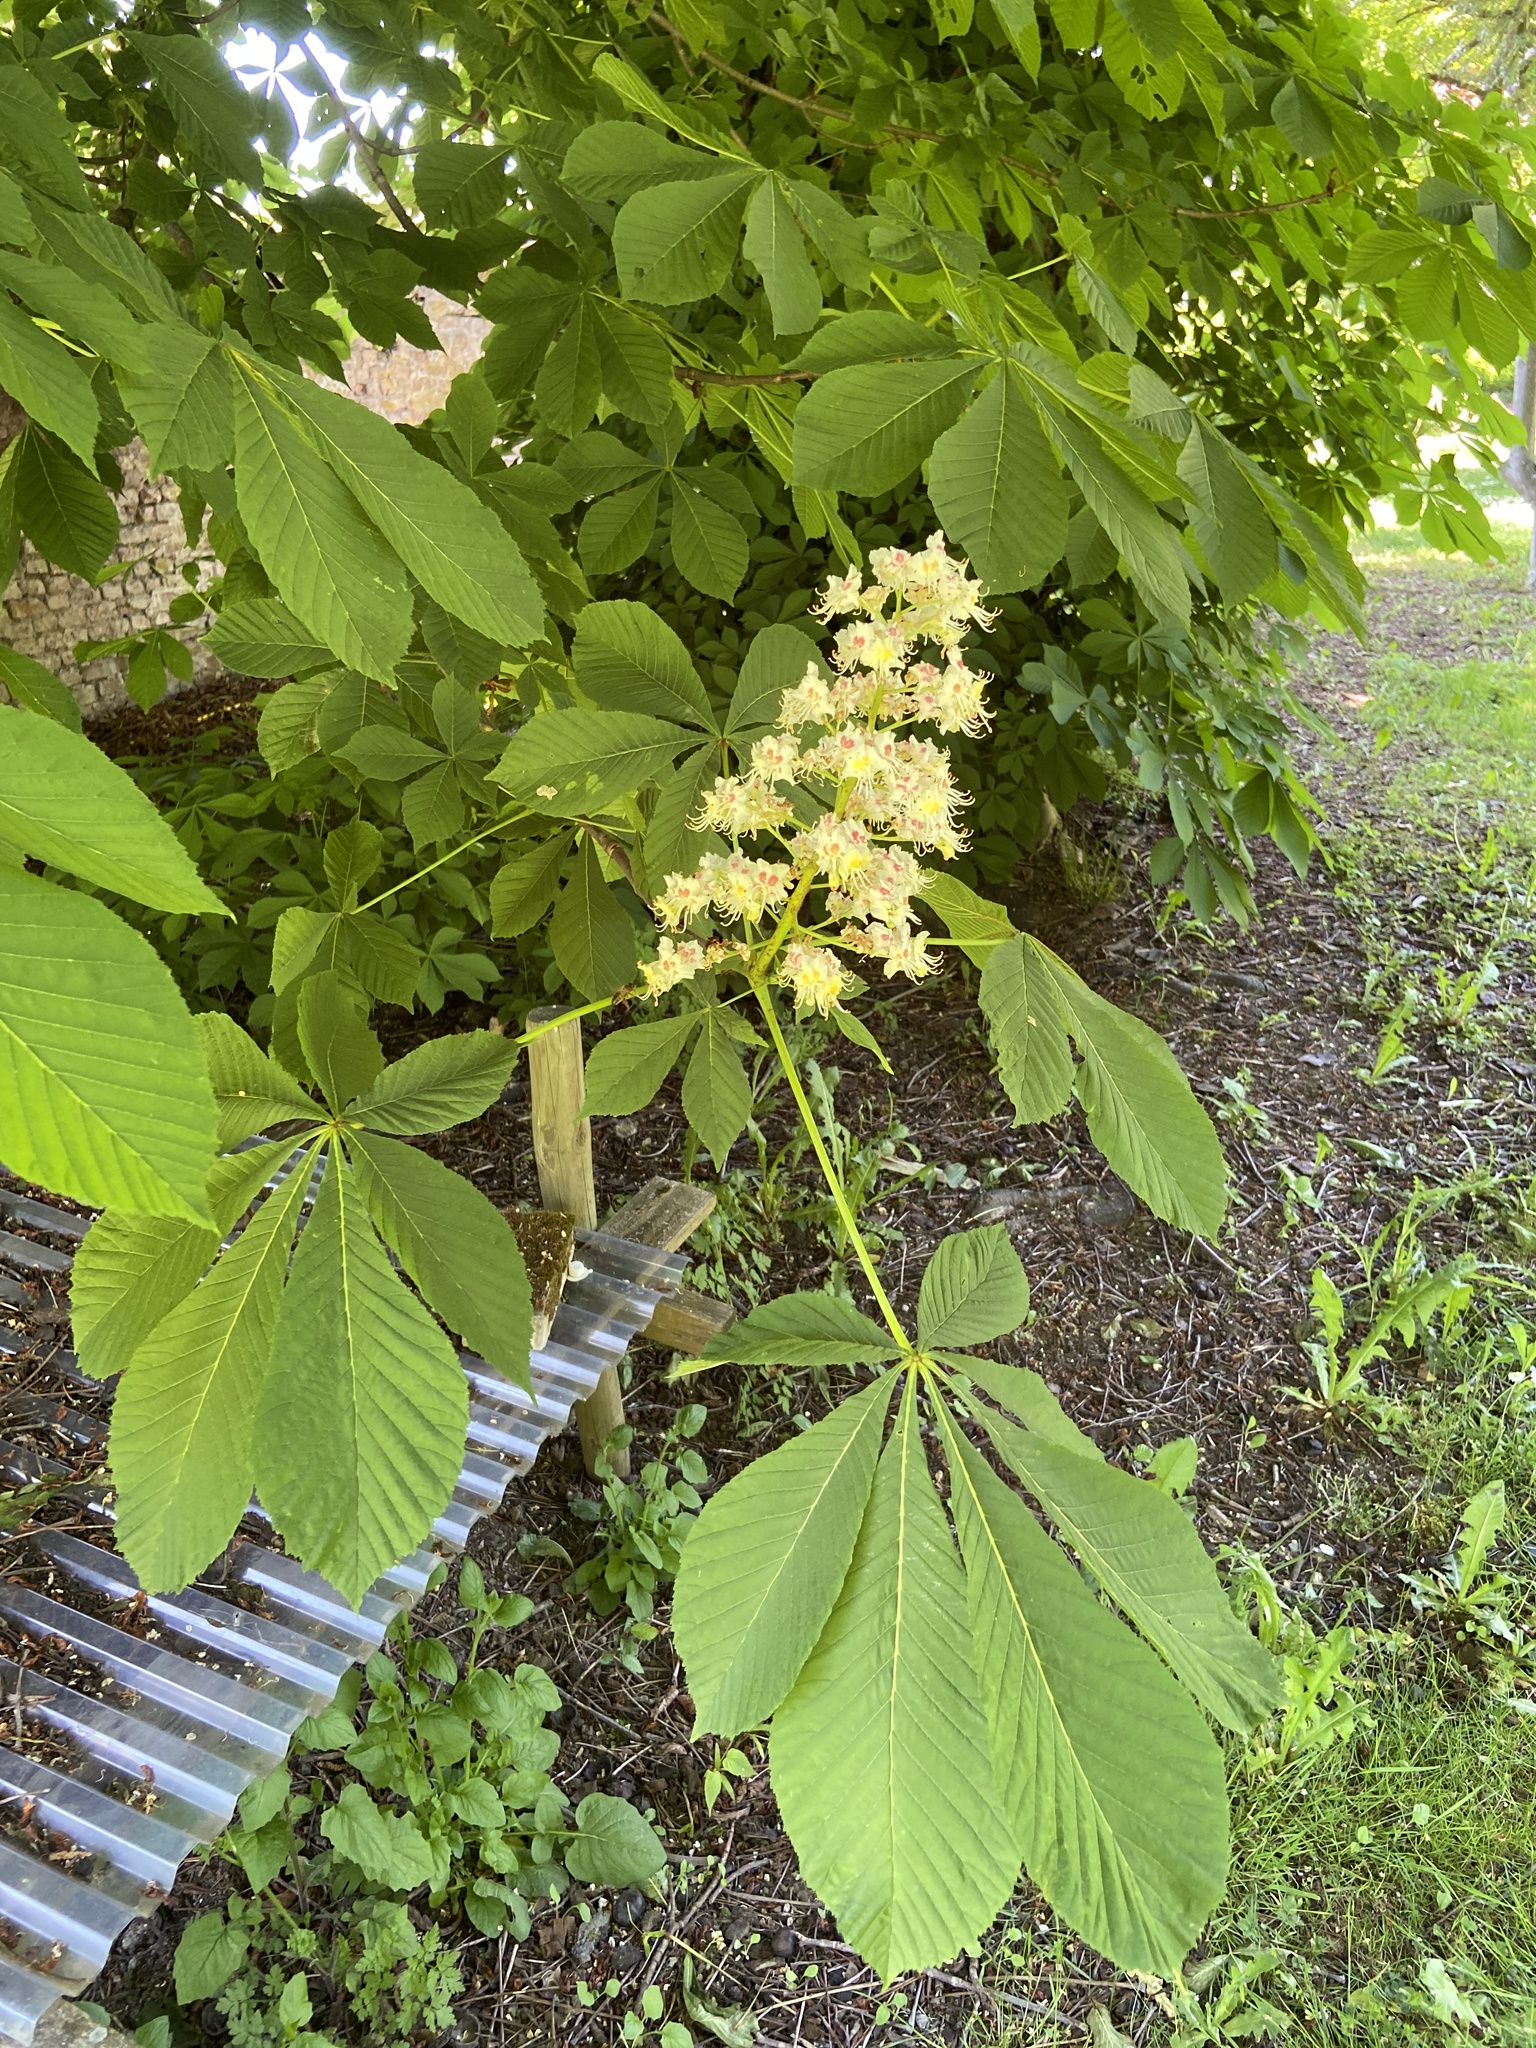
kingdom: Plantae
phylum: Tracheophyta
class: Magnoliopsida
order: Sapindales
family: Sapindaceae
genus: Aesculus
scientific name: Aesculus hippocastanum
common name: Horse-chestnut
